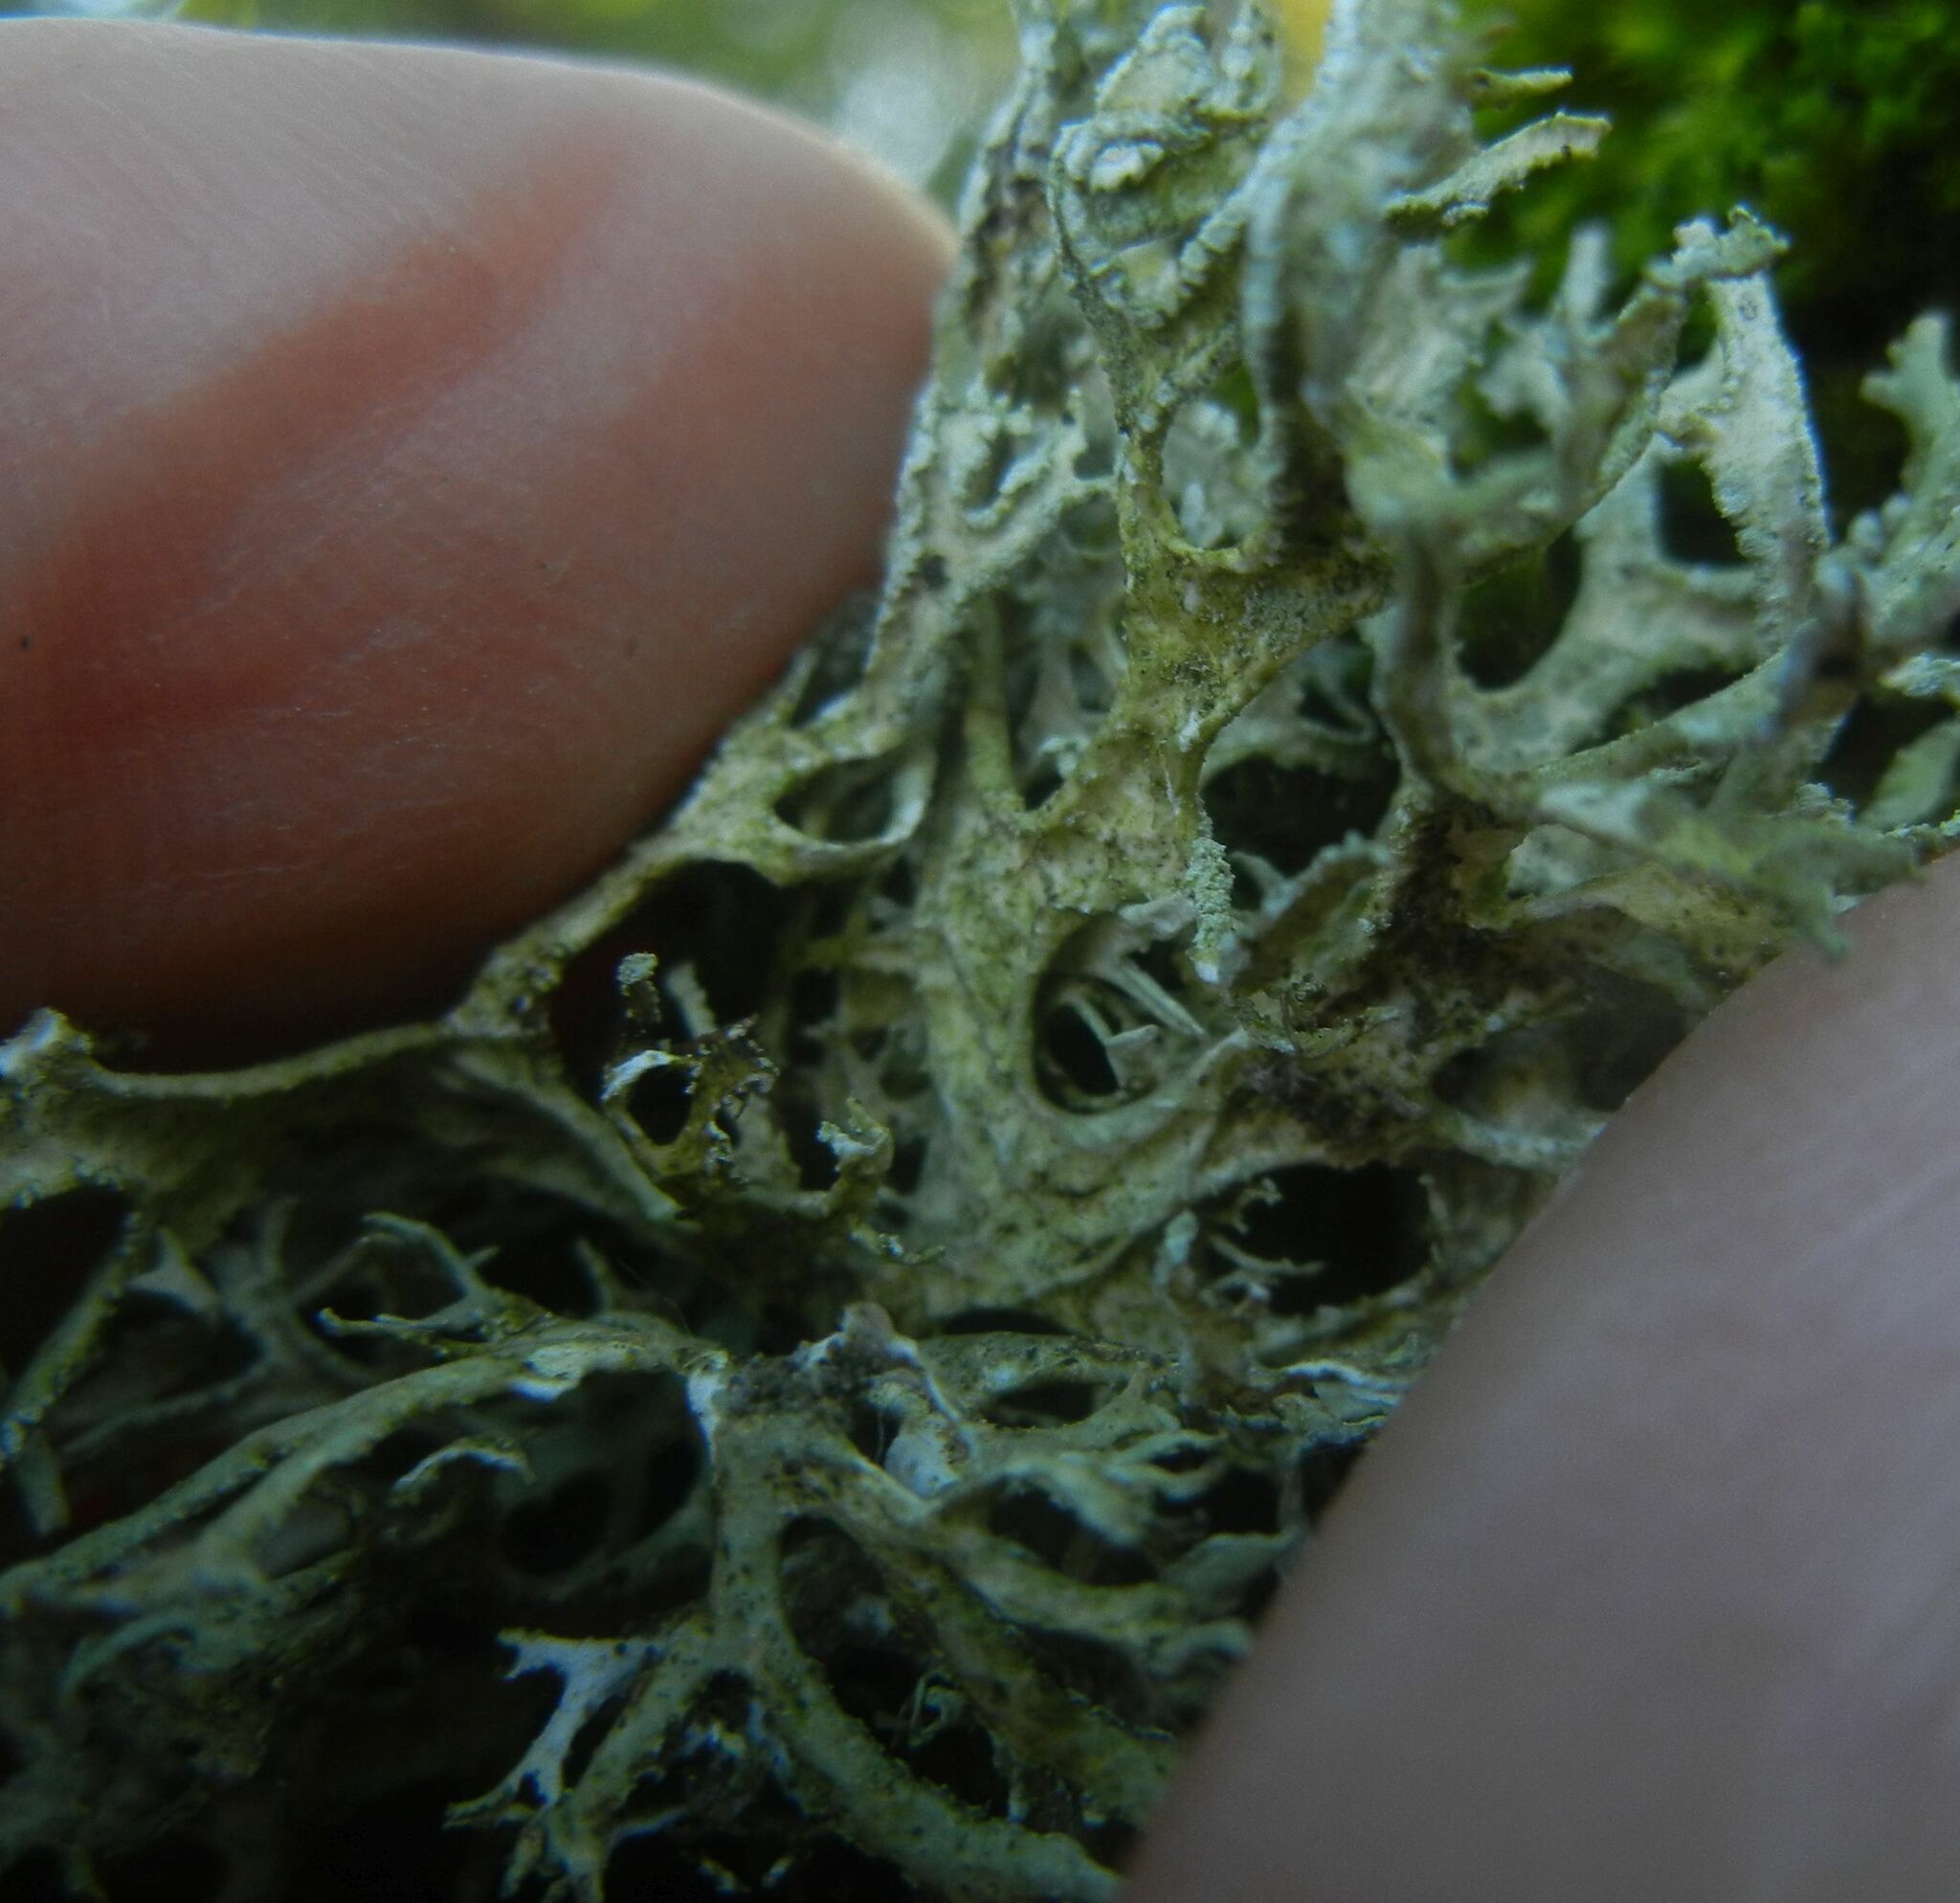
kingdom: Fungi
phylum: Ascomycota
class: Lecanoromycetes
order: Lecanorales
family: Parmeliaceae
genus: Evernia
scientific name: Evernia prunastri
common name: Oak moss
